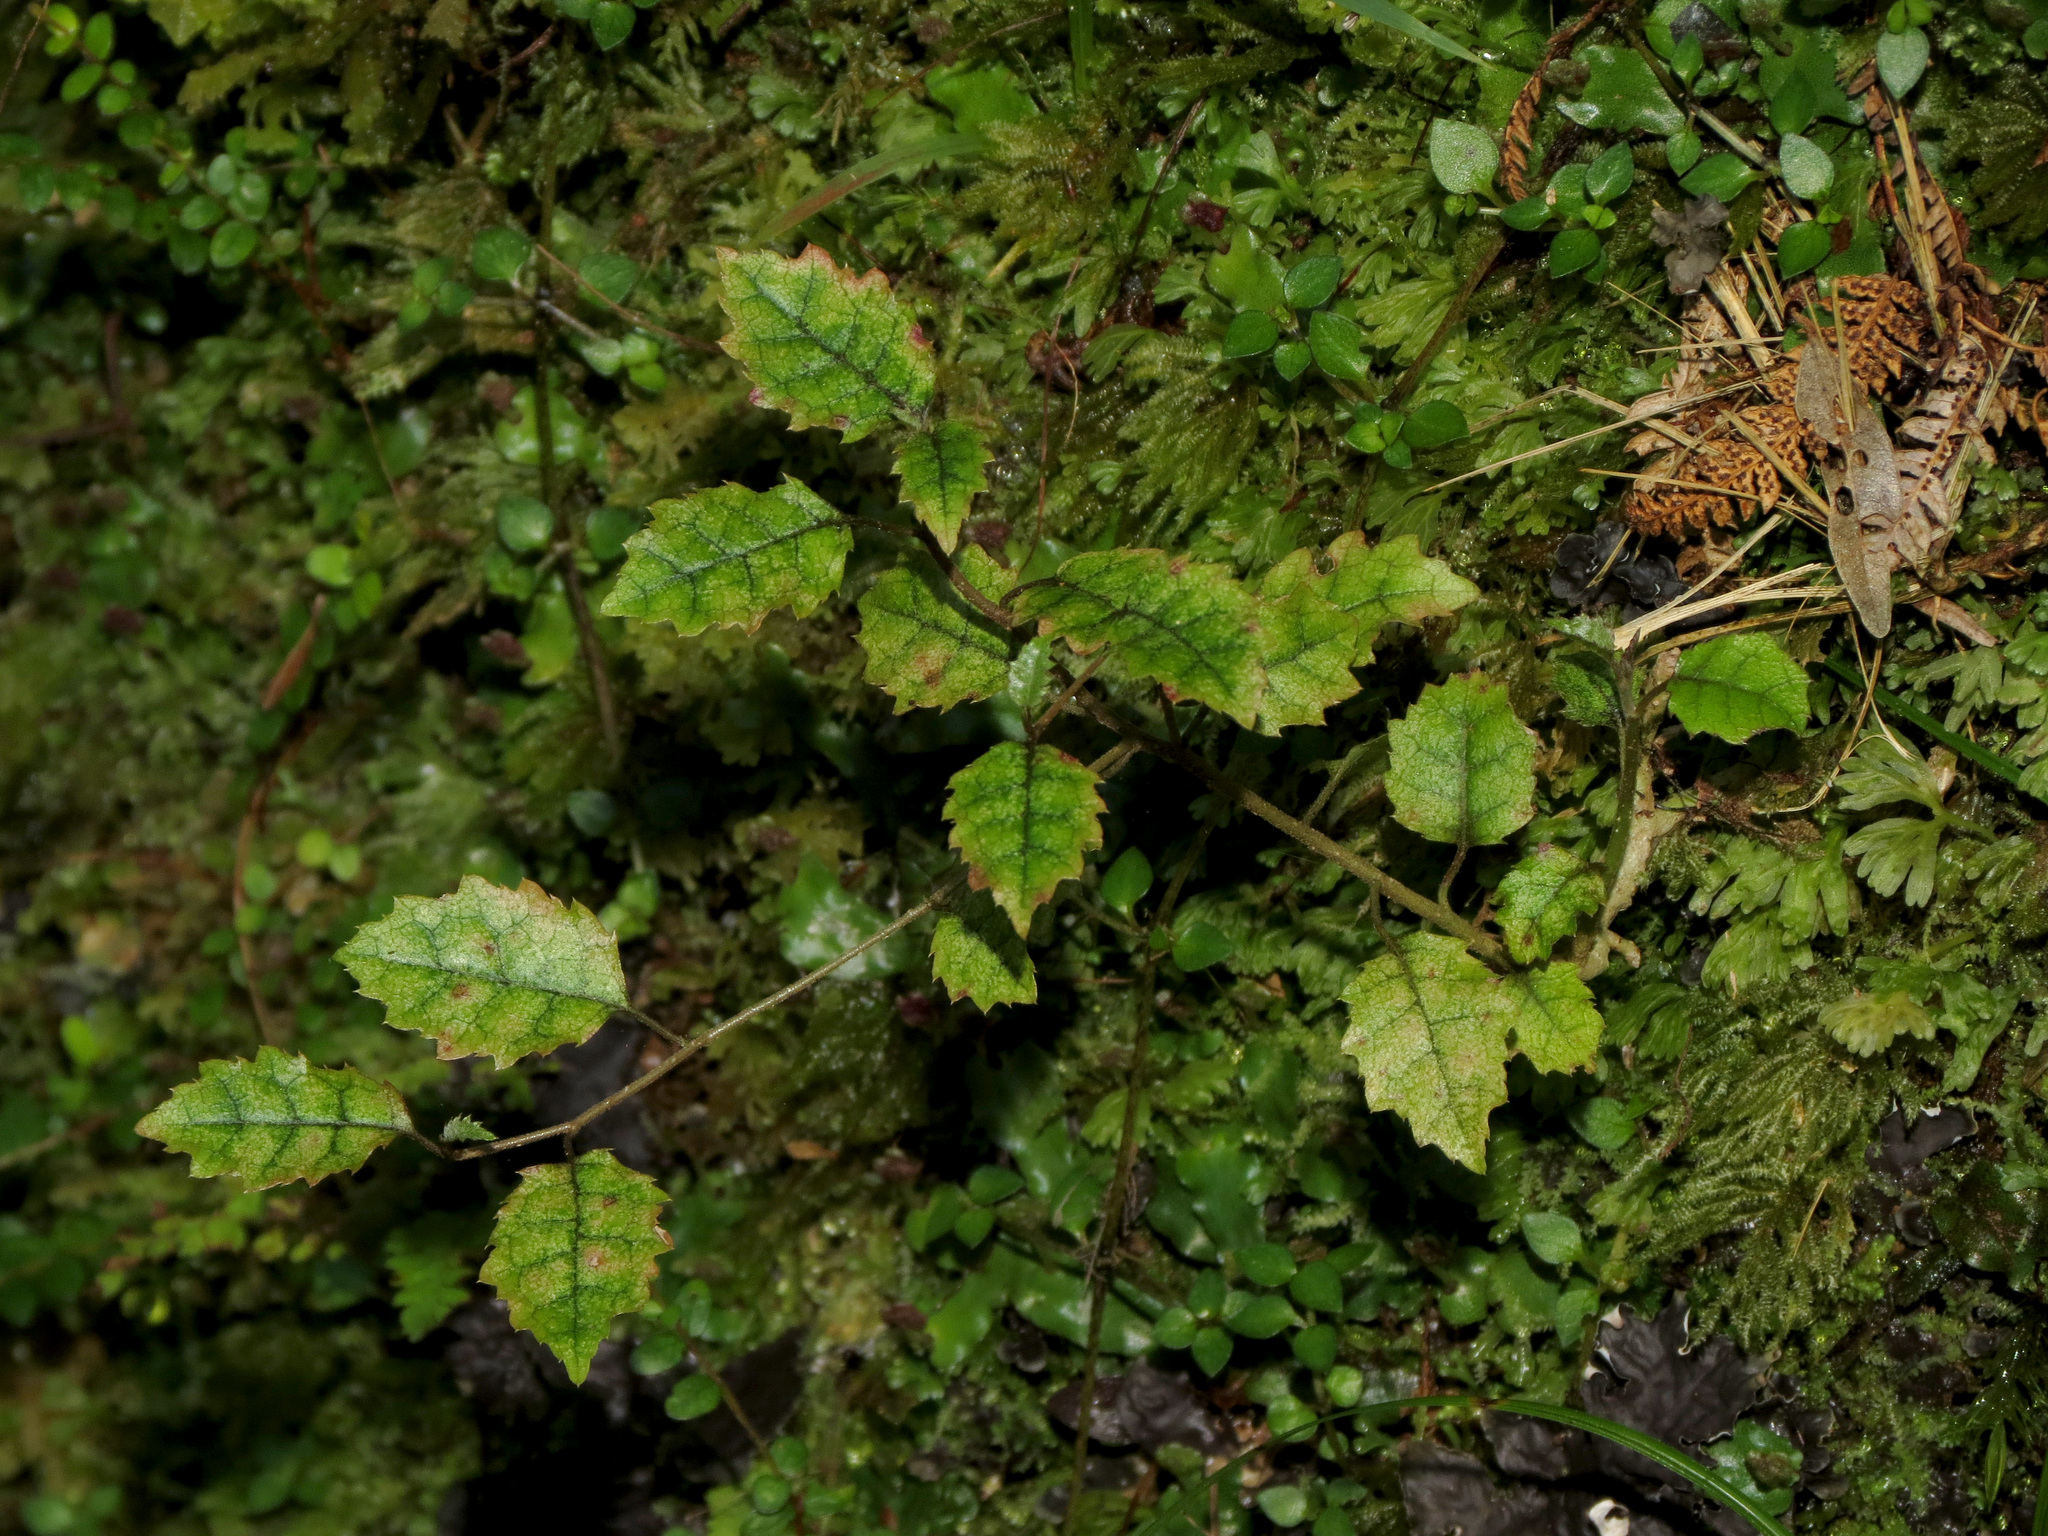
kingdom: Plantae
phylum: Tracheophyta
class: Magnoliopsida
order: Asterales
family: Rousseaceae
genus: Carpodetus
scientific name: Carpodetus serratus
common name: White mapau
